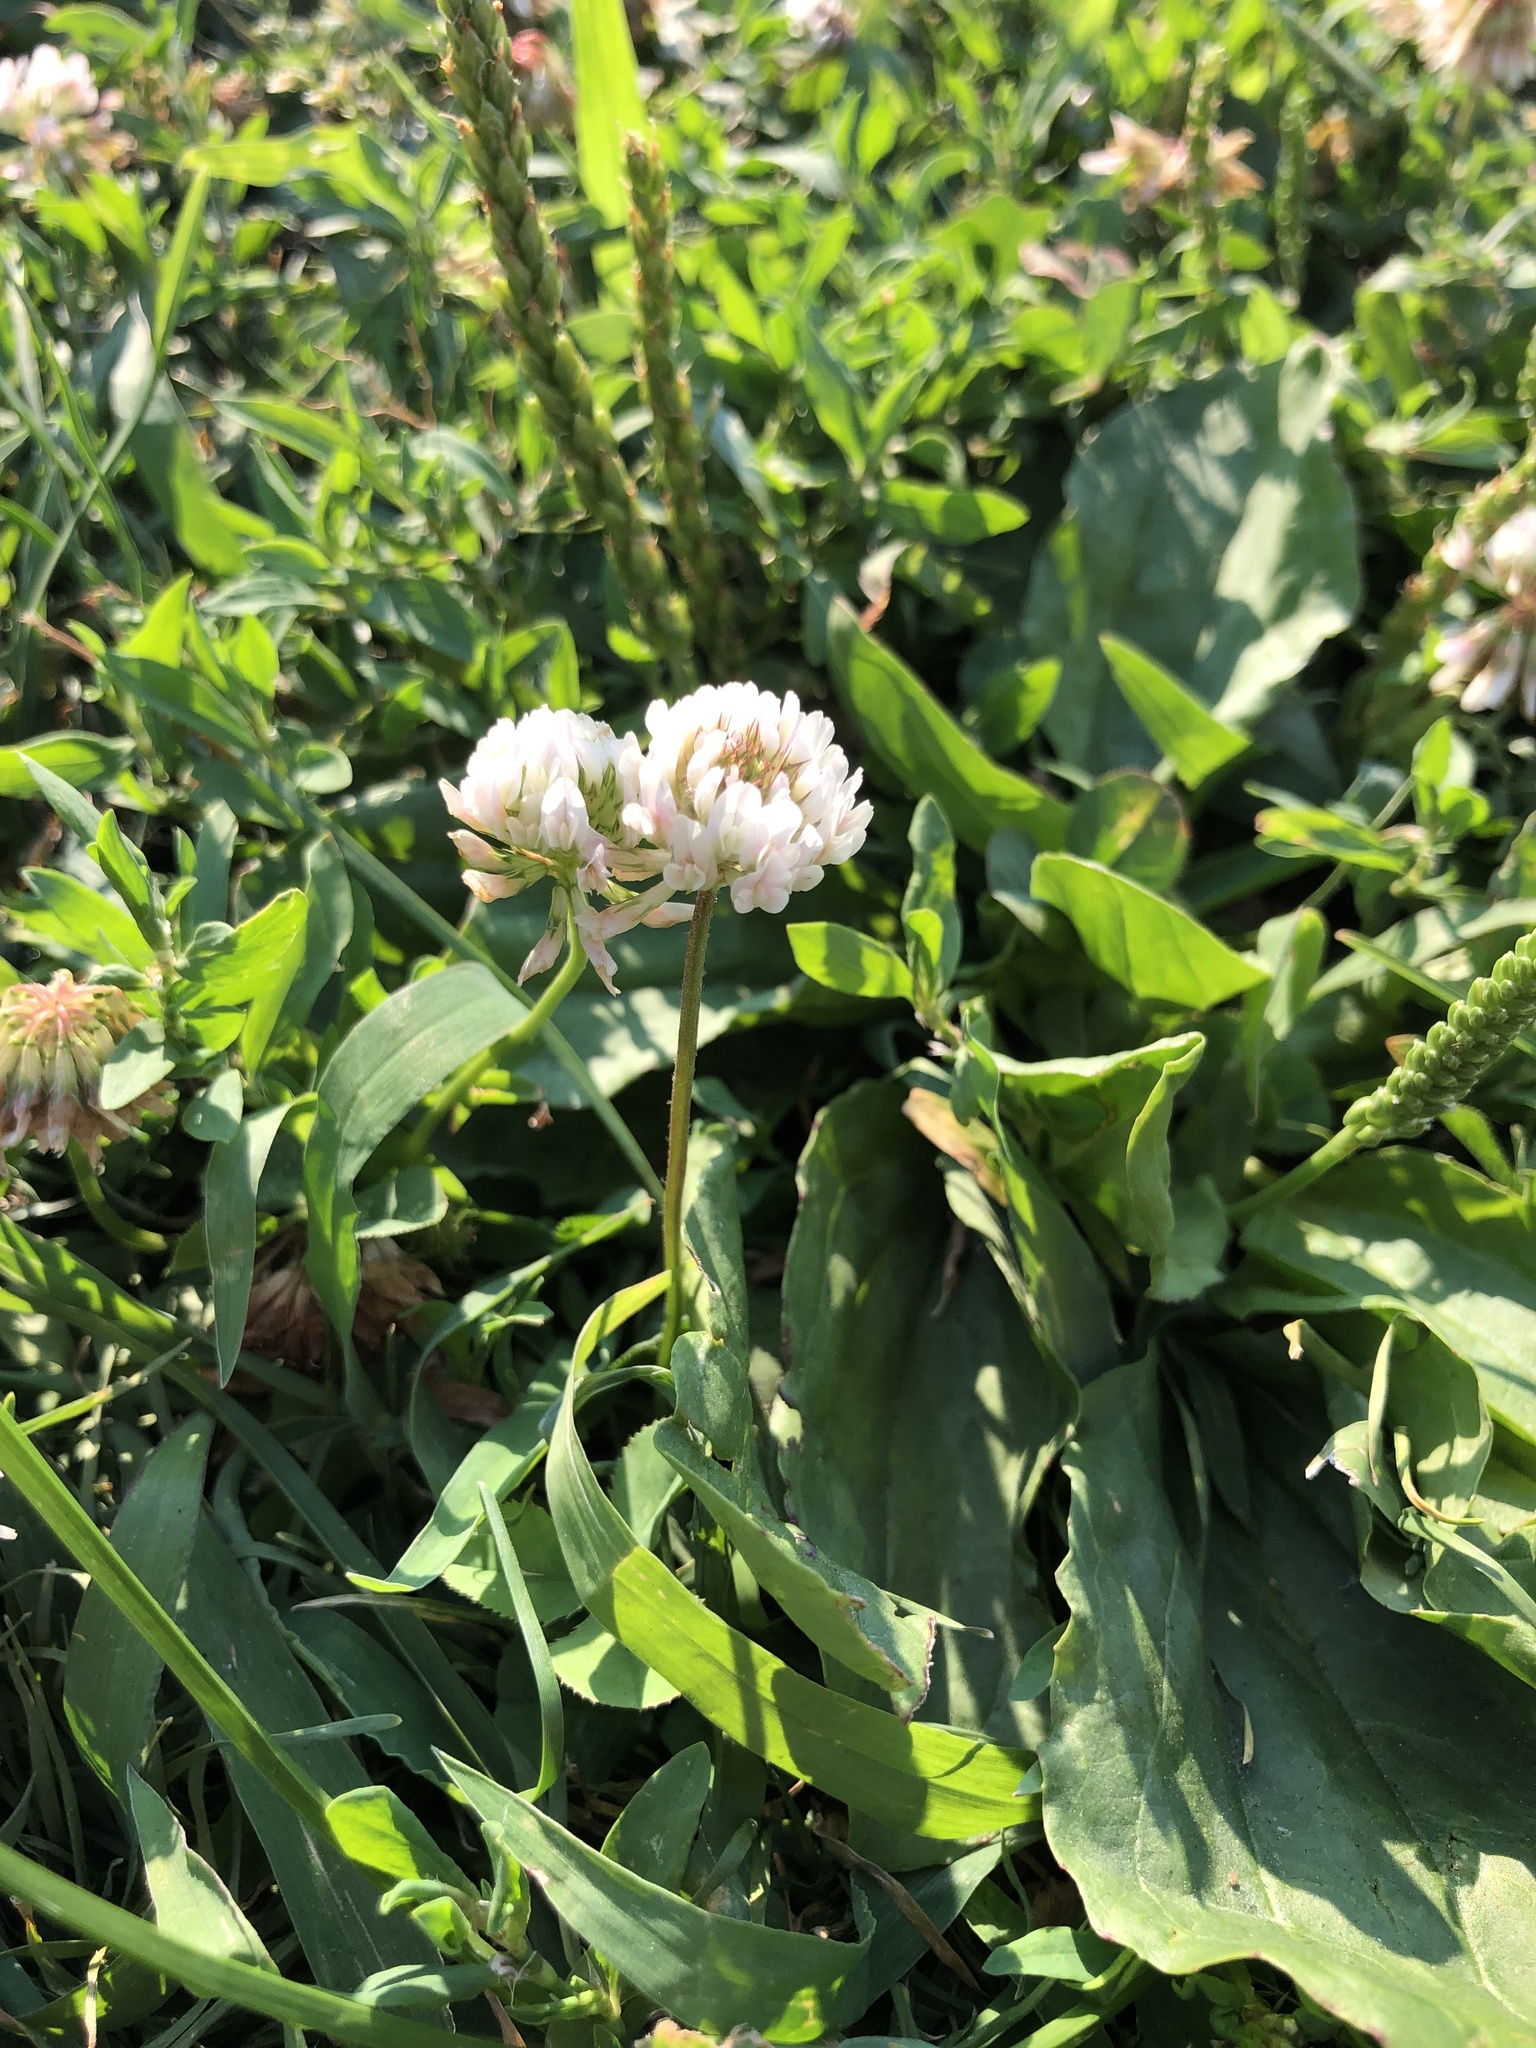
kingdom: Plantae
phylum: Tracheophyta
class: Magnoliopsida
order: Fabales
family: Fabaceae
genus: Trifolium
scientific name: Trifolium repens
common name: White clover
